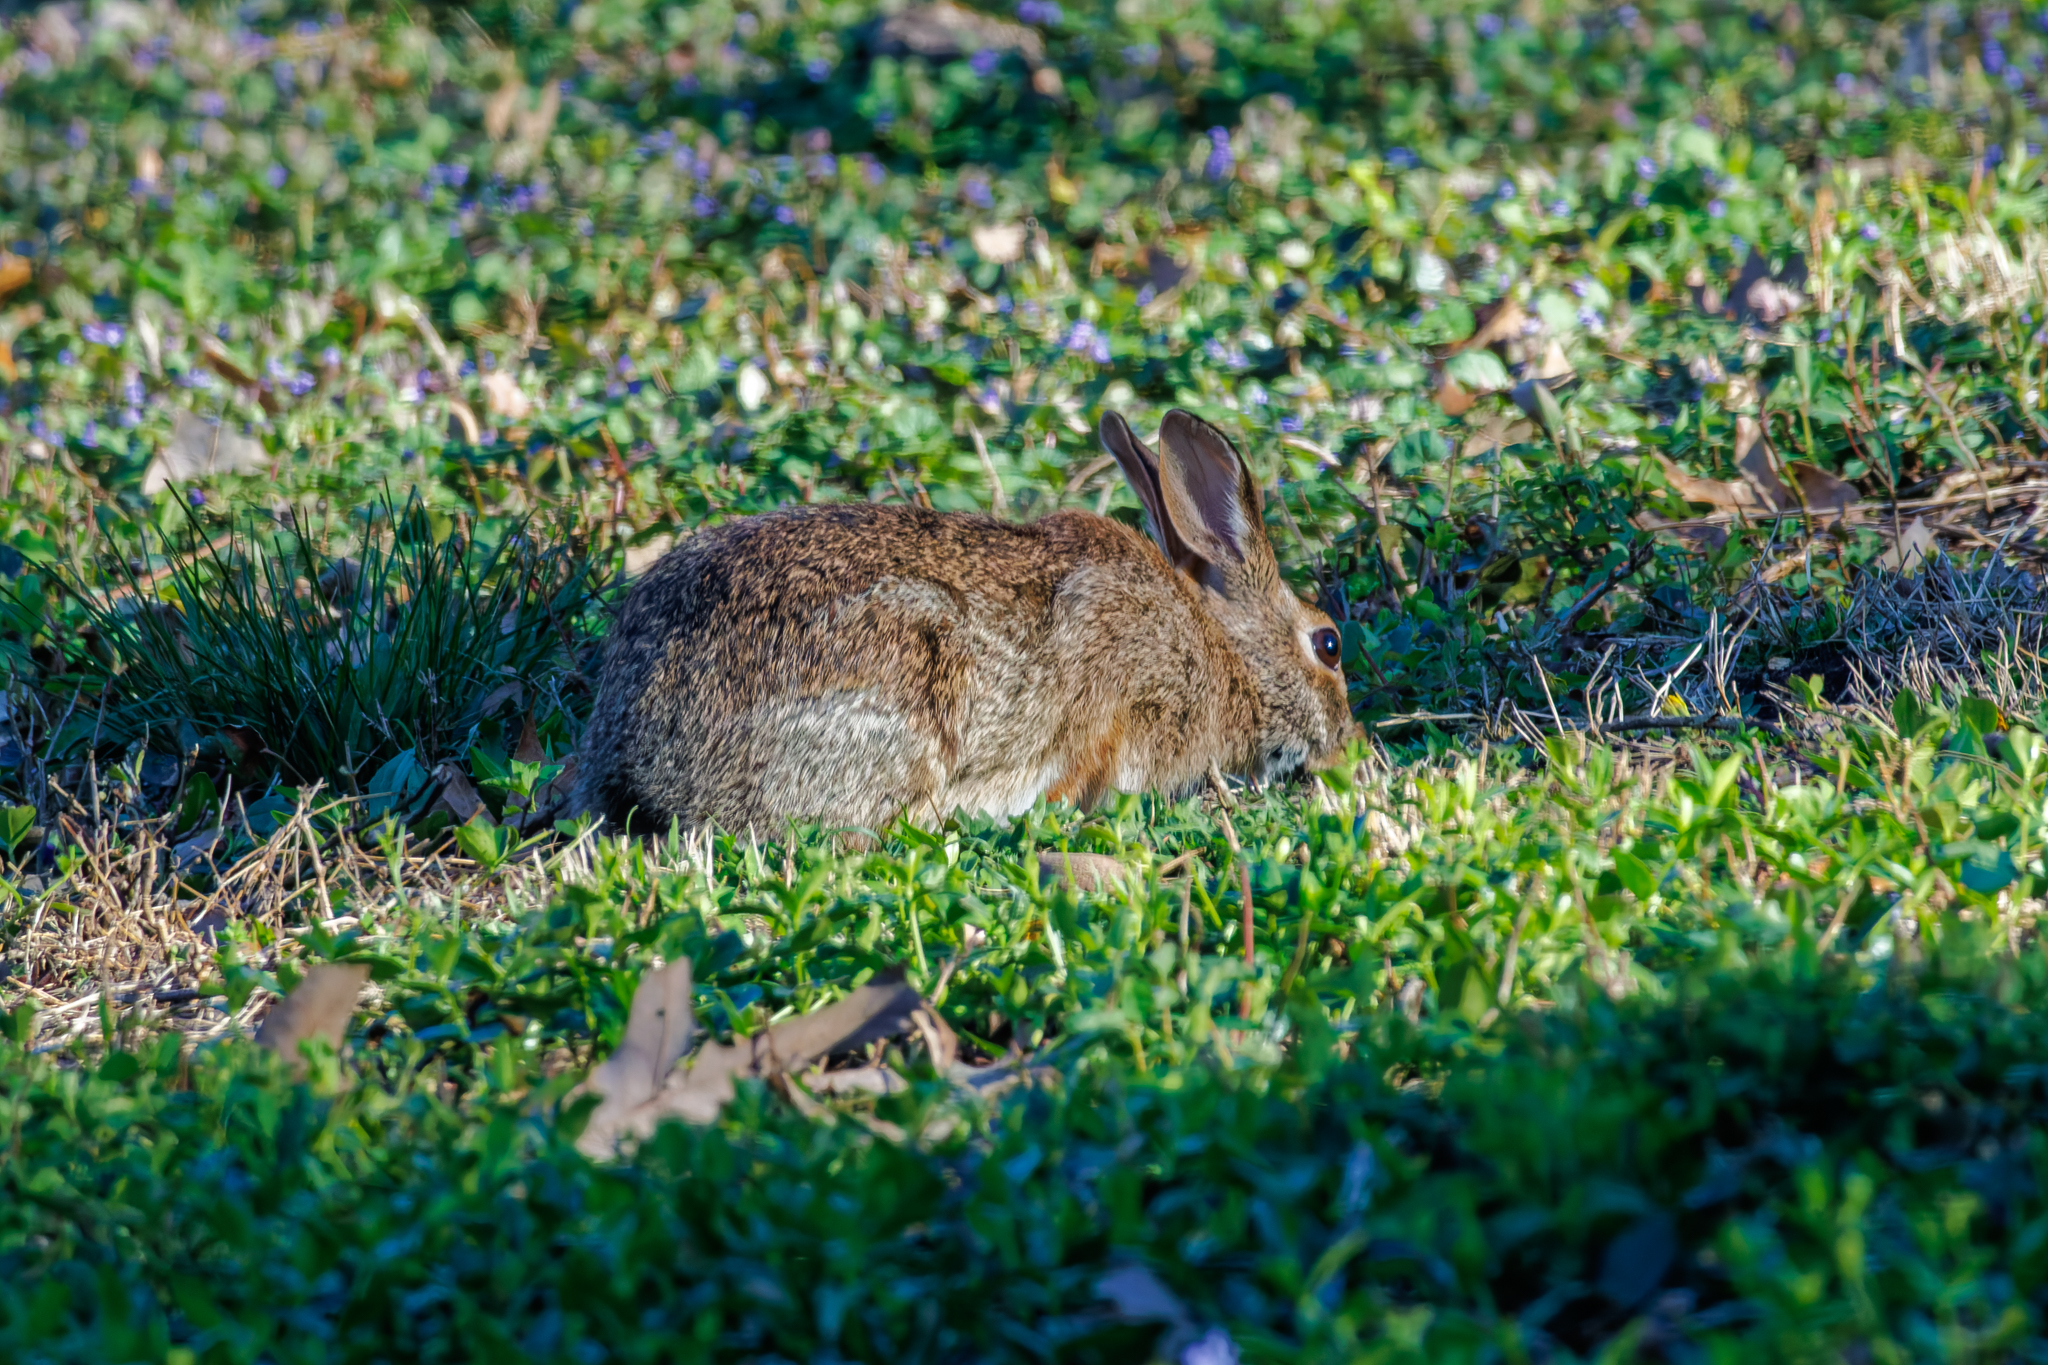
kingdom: Animalia
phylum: Chordata
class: Mammalia
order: Lagomorpha
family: Leporidae
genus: Sylvilagus
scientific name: Sylvilagus floridanus
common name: Eastern cottontail
